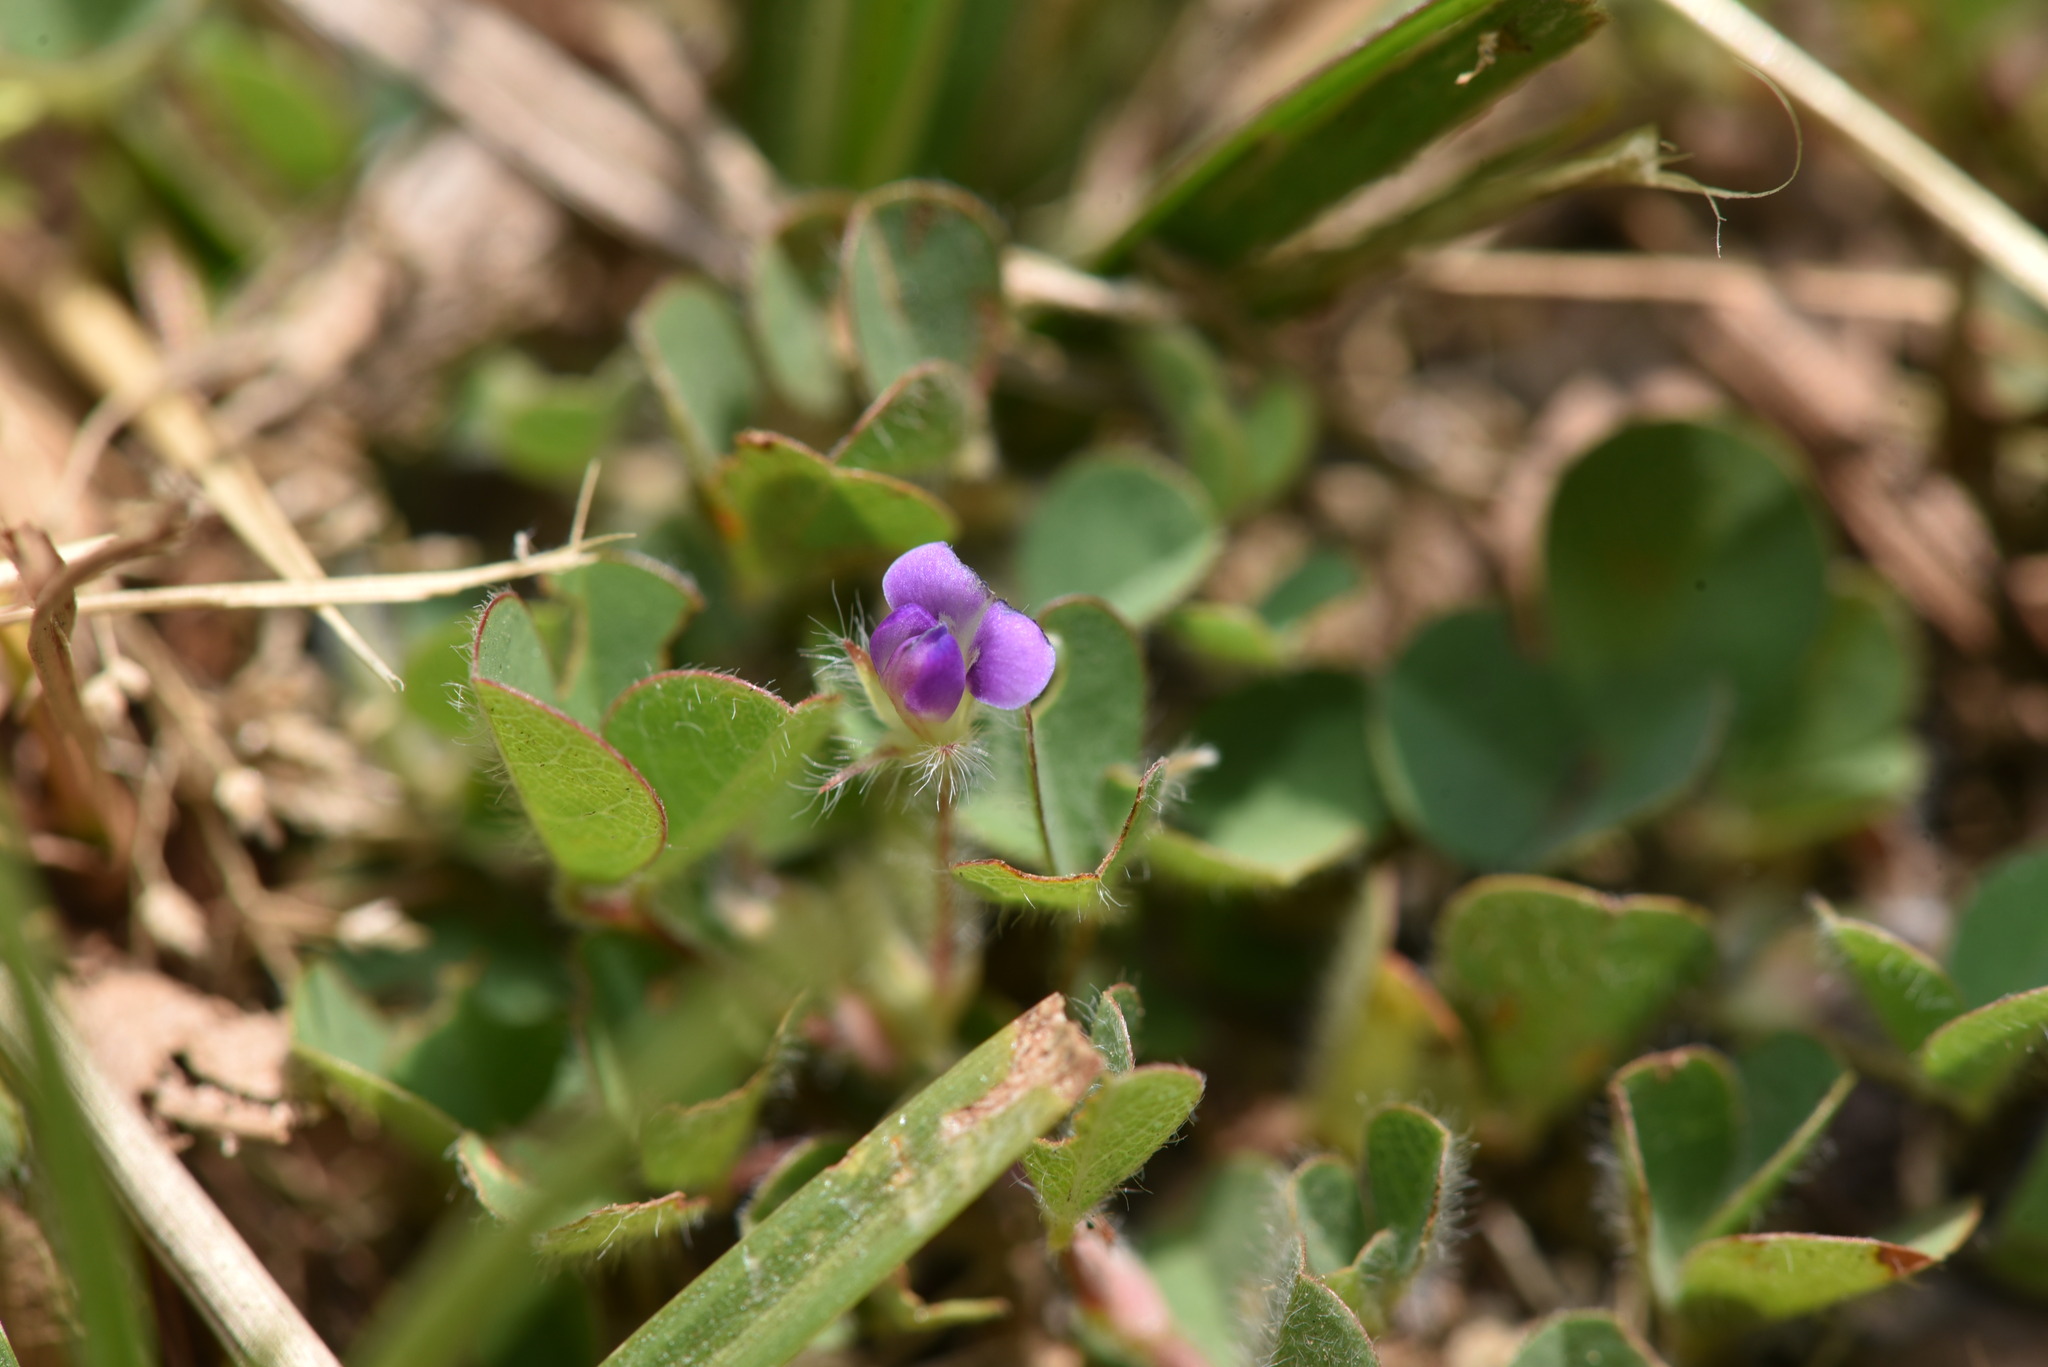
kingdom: Plantae
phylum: Tracheophyta
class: Magnoliopsida
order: Fabales
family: Fabaceae
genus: Grona
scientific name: Grona triflora
